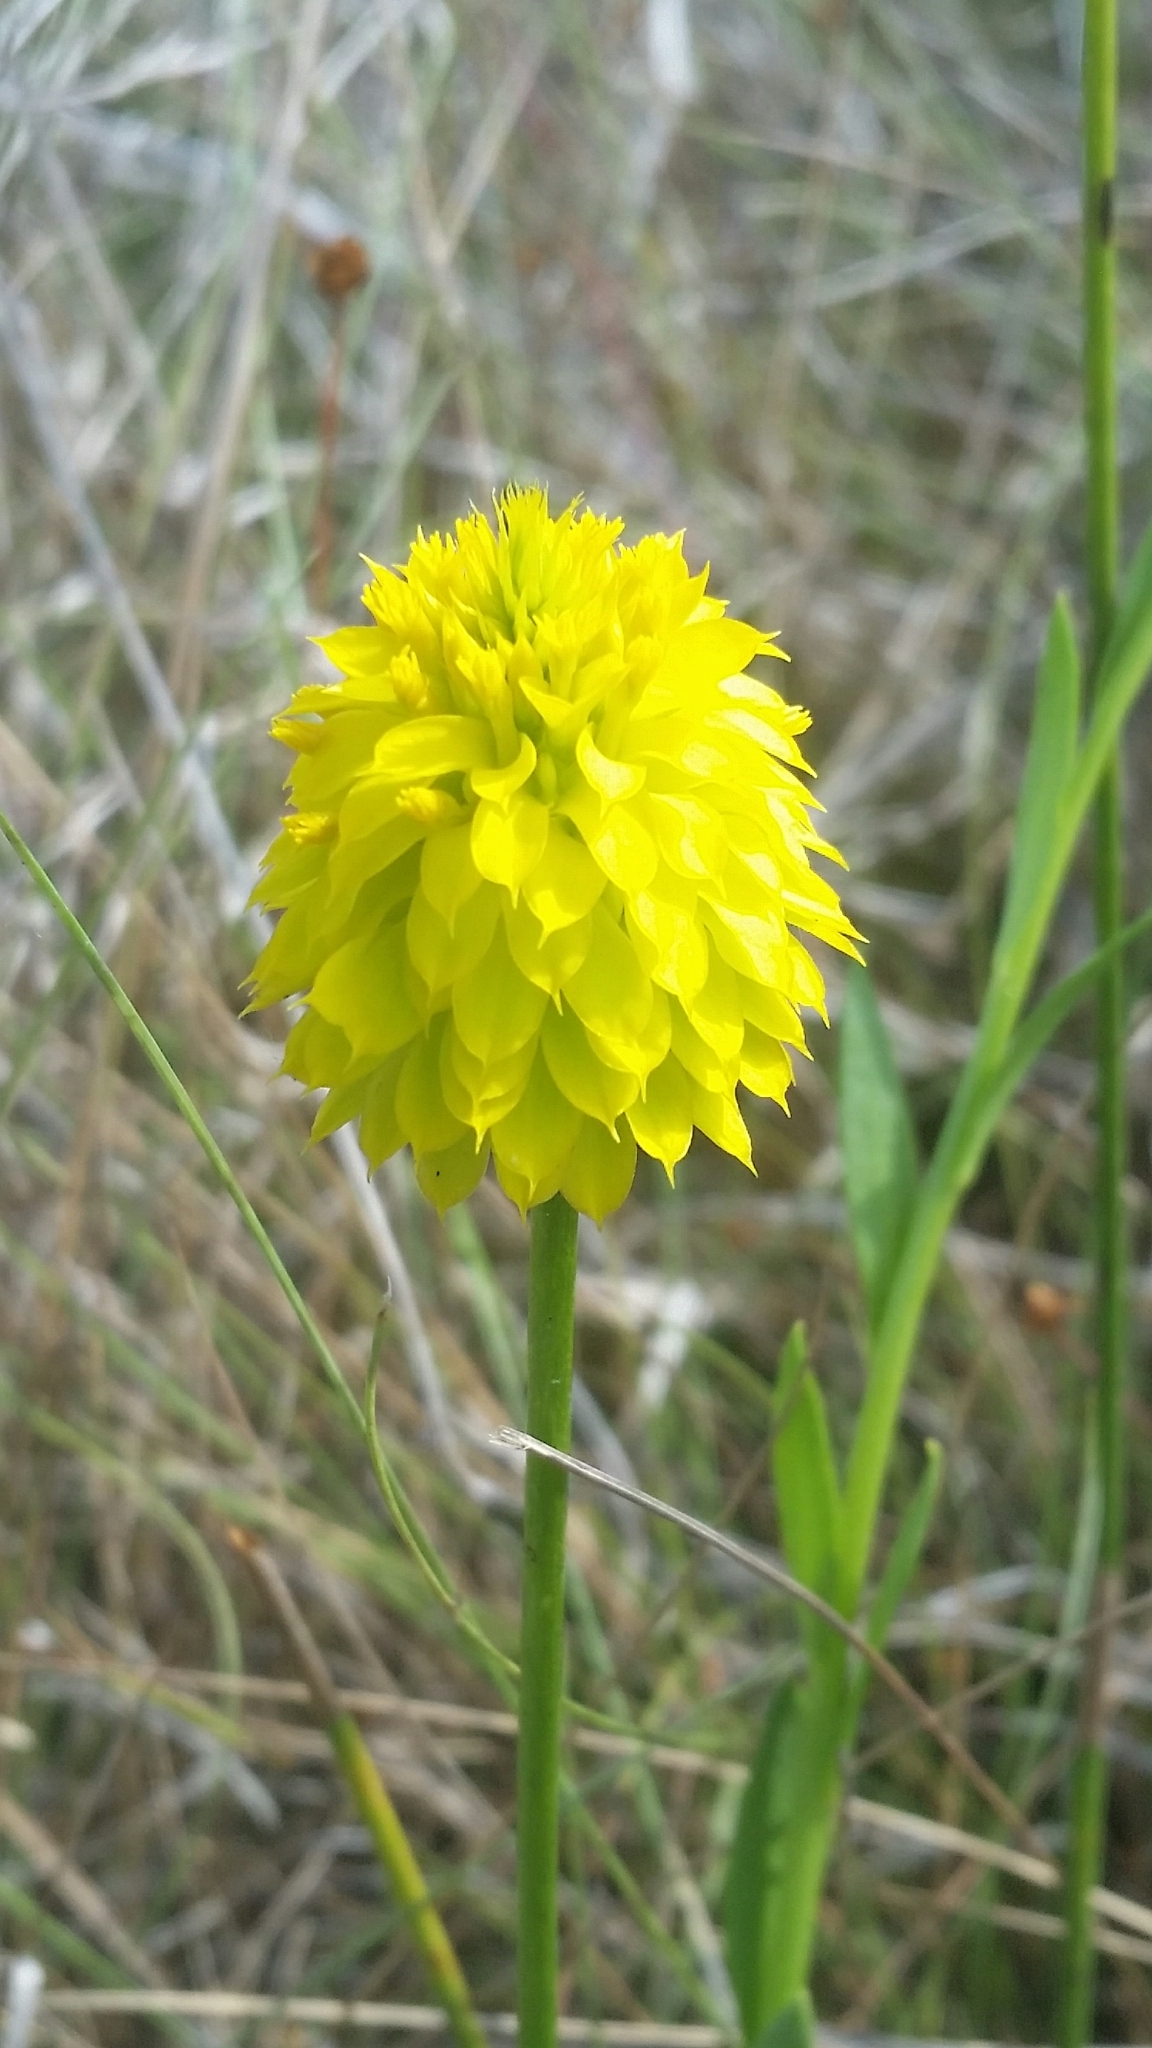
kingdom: Plantae
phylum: Tracheophyta
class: Magnoliopsida
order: Fabales
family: Polygalaceae
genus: Polygala
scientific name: Polygala rugelii
